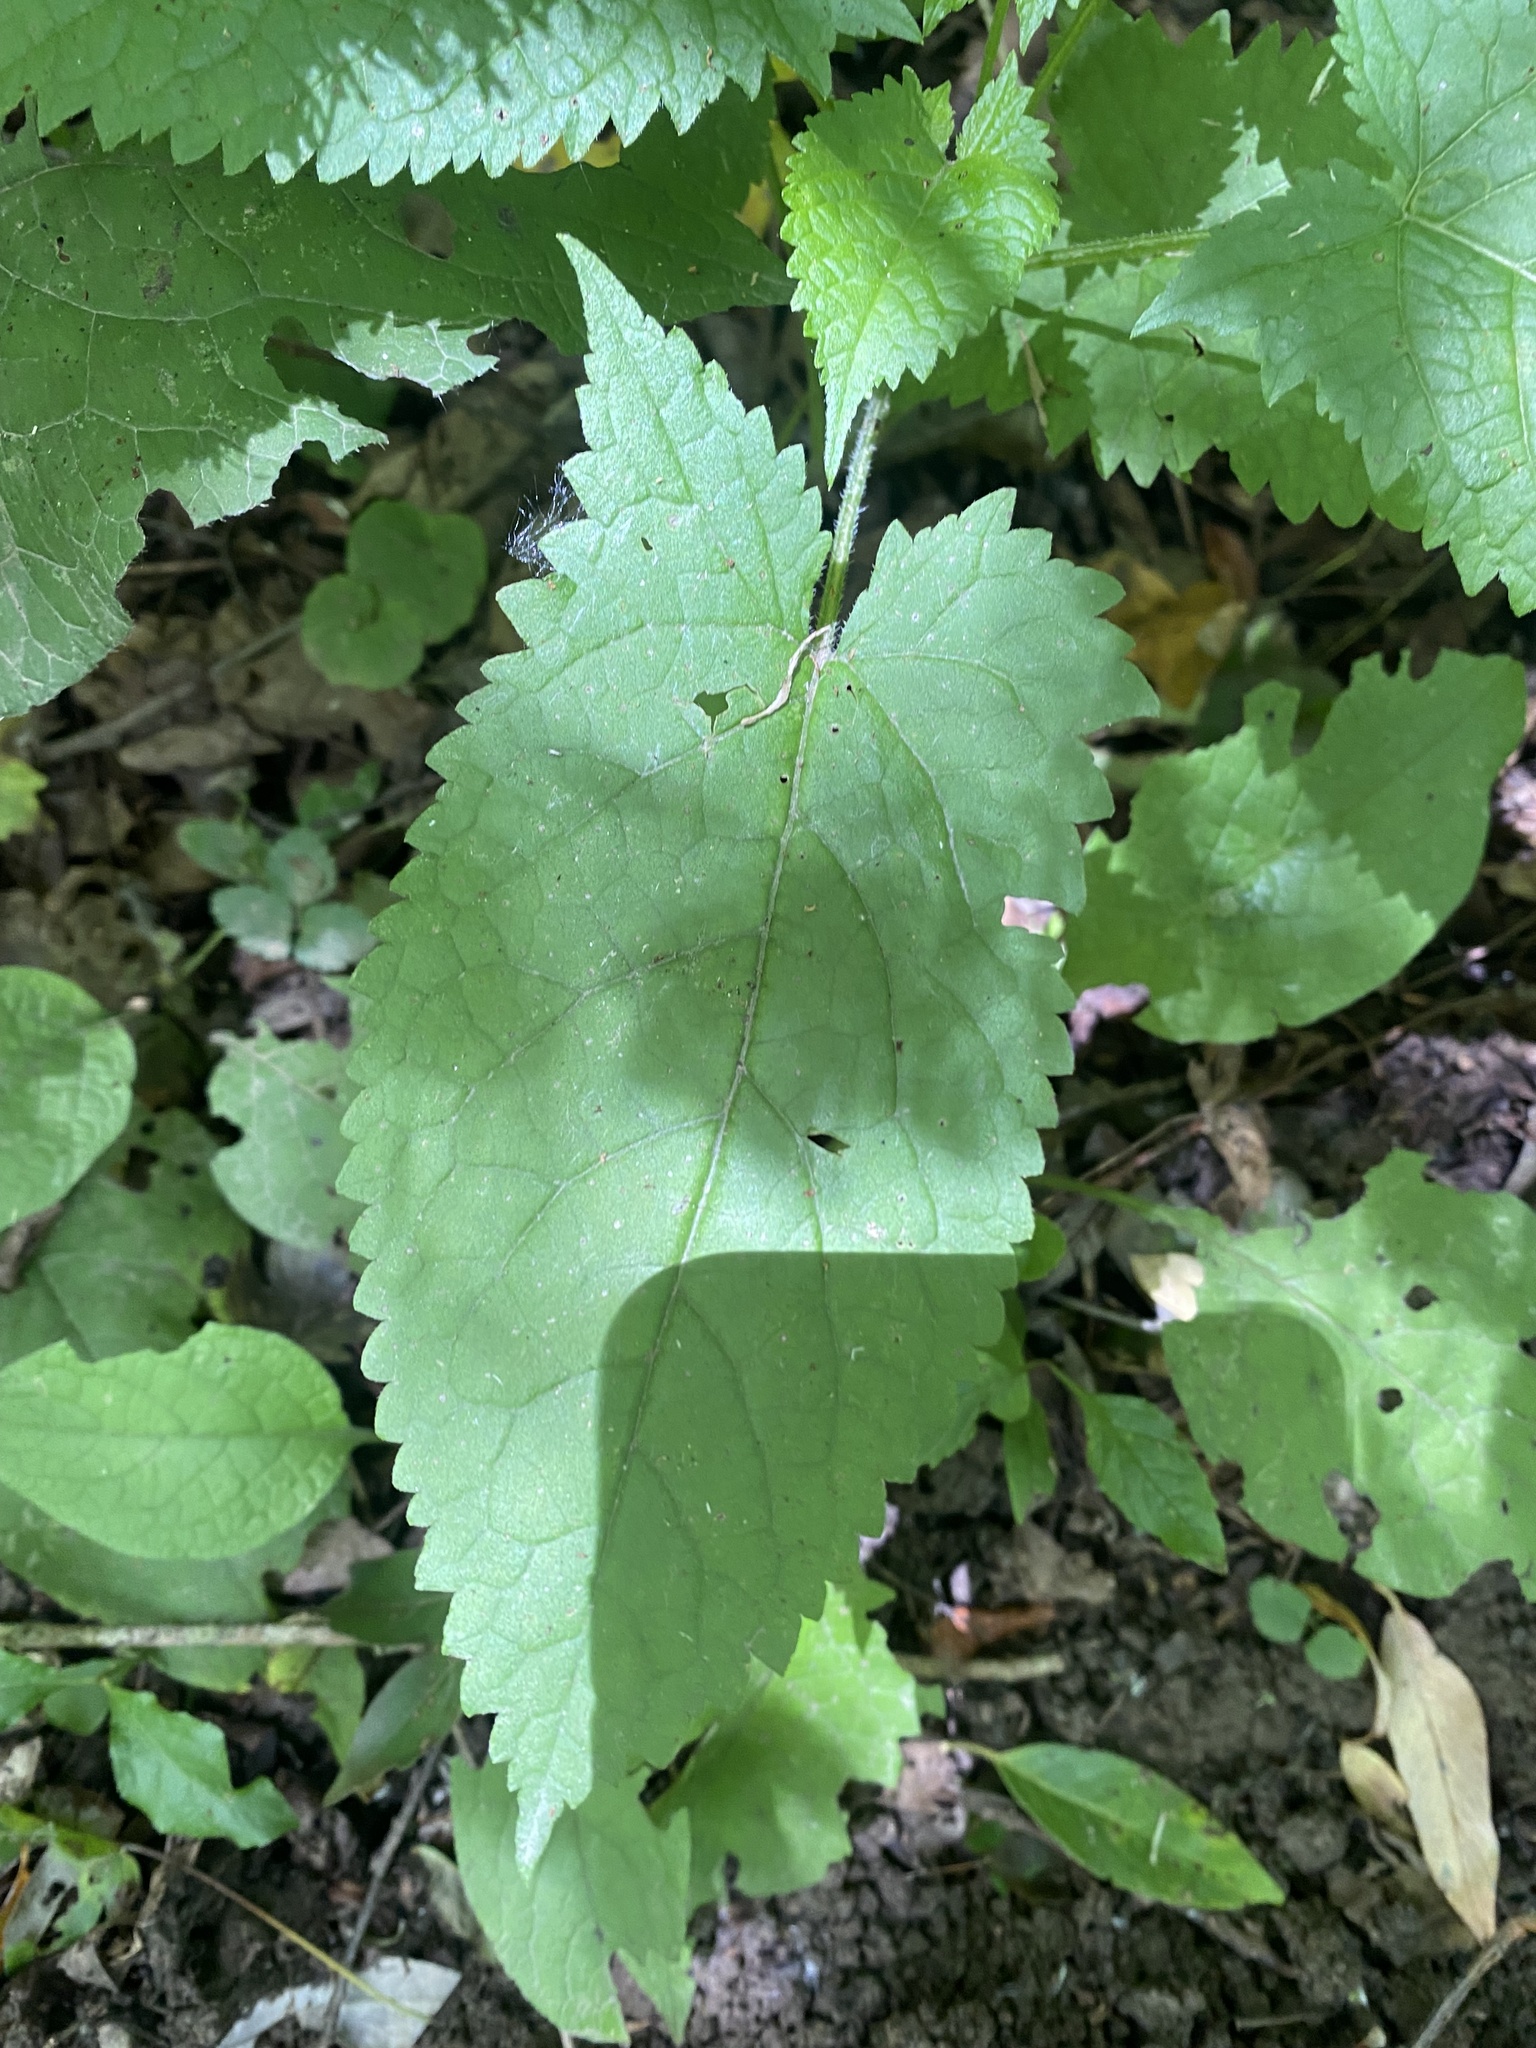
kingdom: Plantae
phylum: Tracheophyta
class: Magnoliopsida
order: Lamiales
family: Lamiaceae
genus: Salvia
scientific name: Salvia glutinosa
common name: Sticky clary
